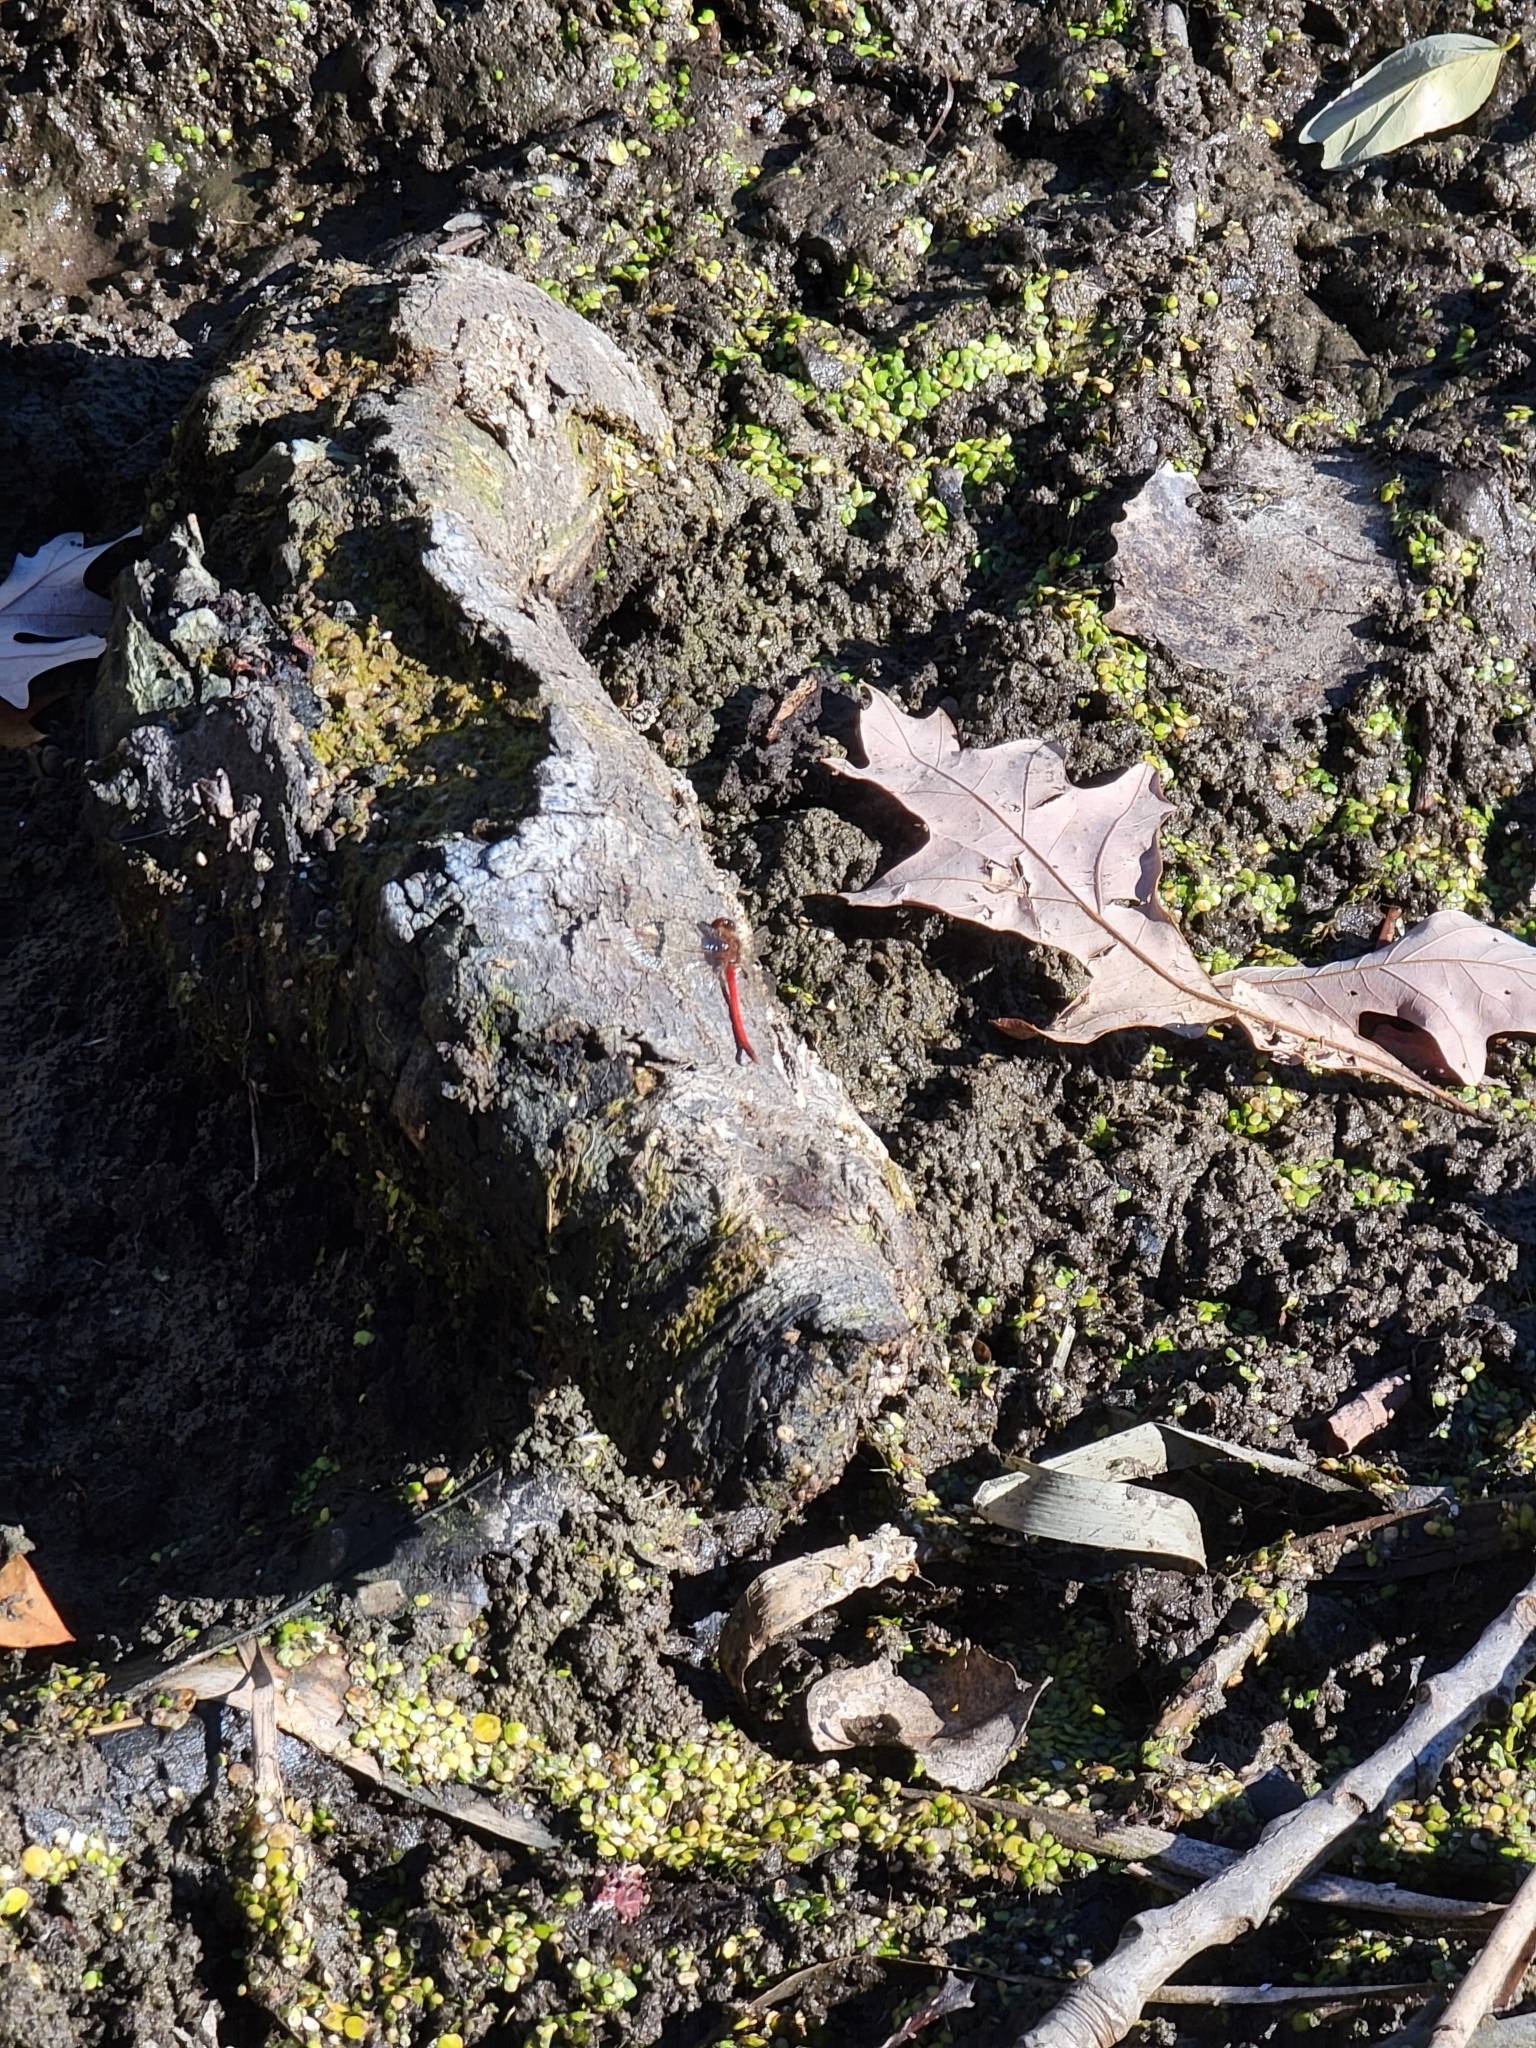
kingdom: Animalia
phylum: Arthropoda
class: Insecta
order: Odonata
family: Libellulidae
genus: Sympetrum
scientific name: Sympetrum vicinum
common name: Autumn meadowhawk
